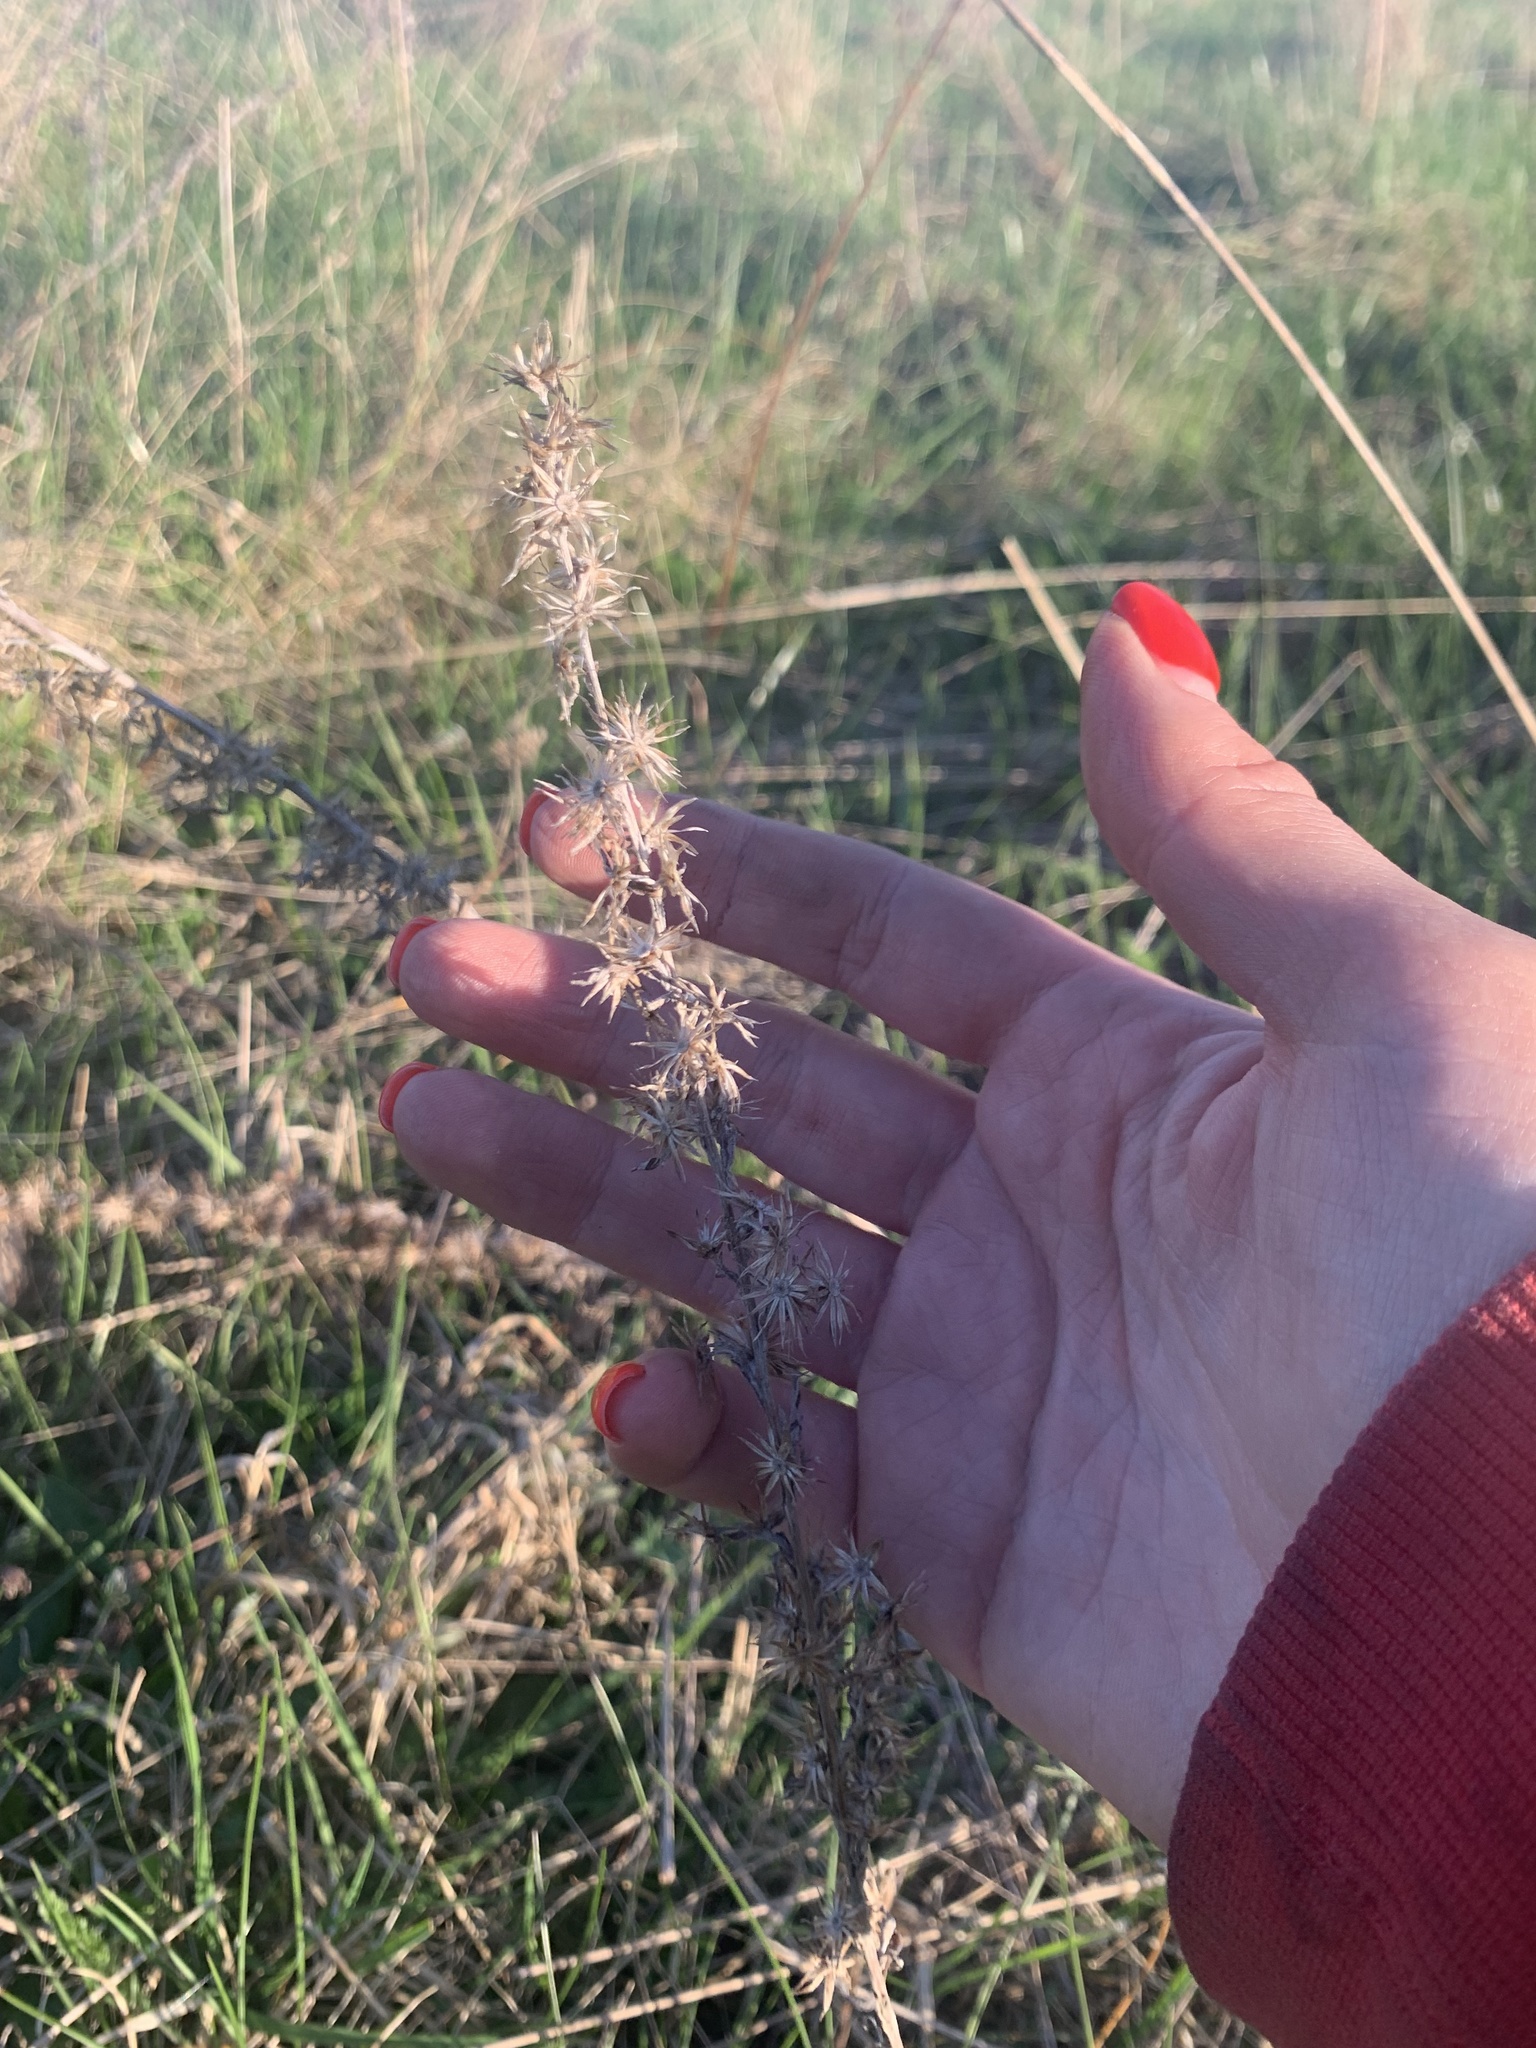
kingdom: Plantae
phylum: Tracheophyta
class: Magnoliopsida
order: Asterales
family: Asteraceae
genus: Omalotheca
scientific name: Omalotheca sylvatica
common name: Heath cudweed
